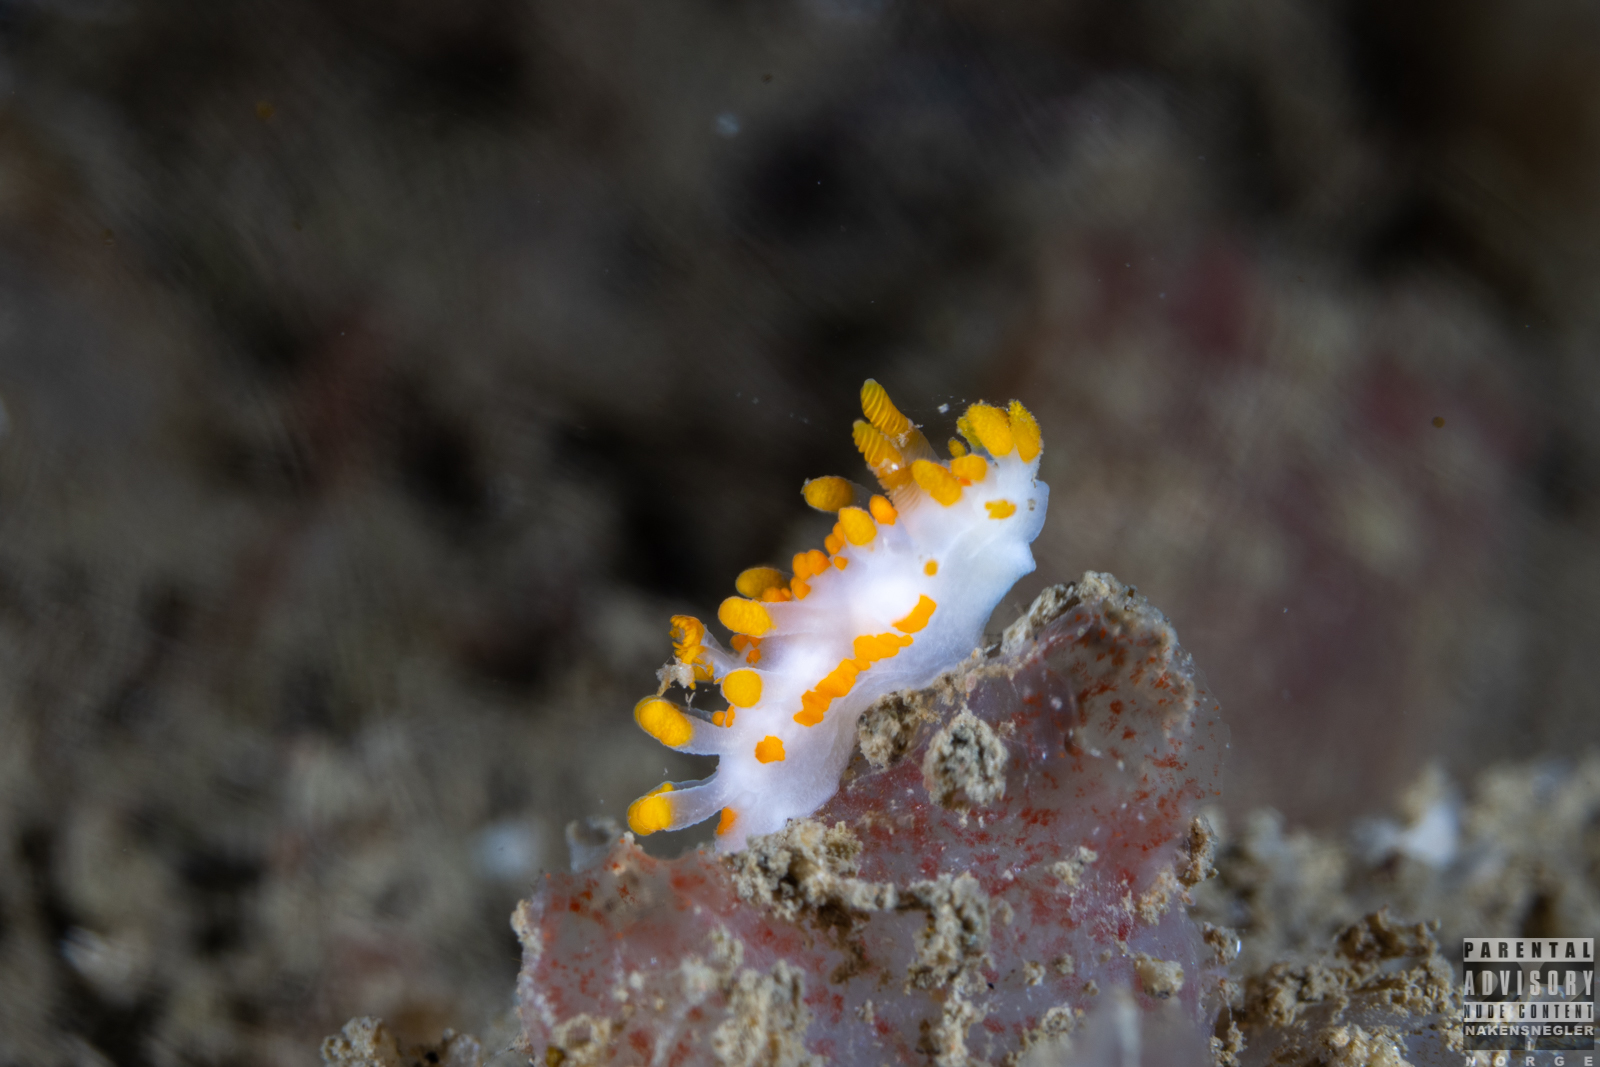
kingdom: Animalia
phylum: Mollusca
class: Gastropoda
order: Nudibranchia
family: Polyceridae
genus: Limacia
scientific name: Limacia clavigera
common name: Orange-clubbed sea slug
